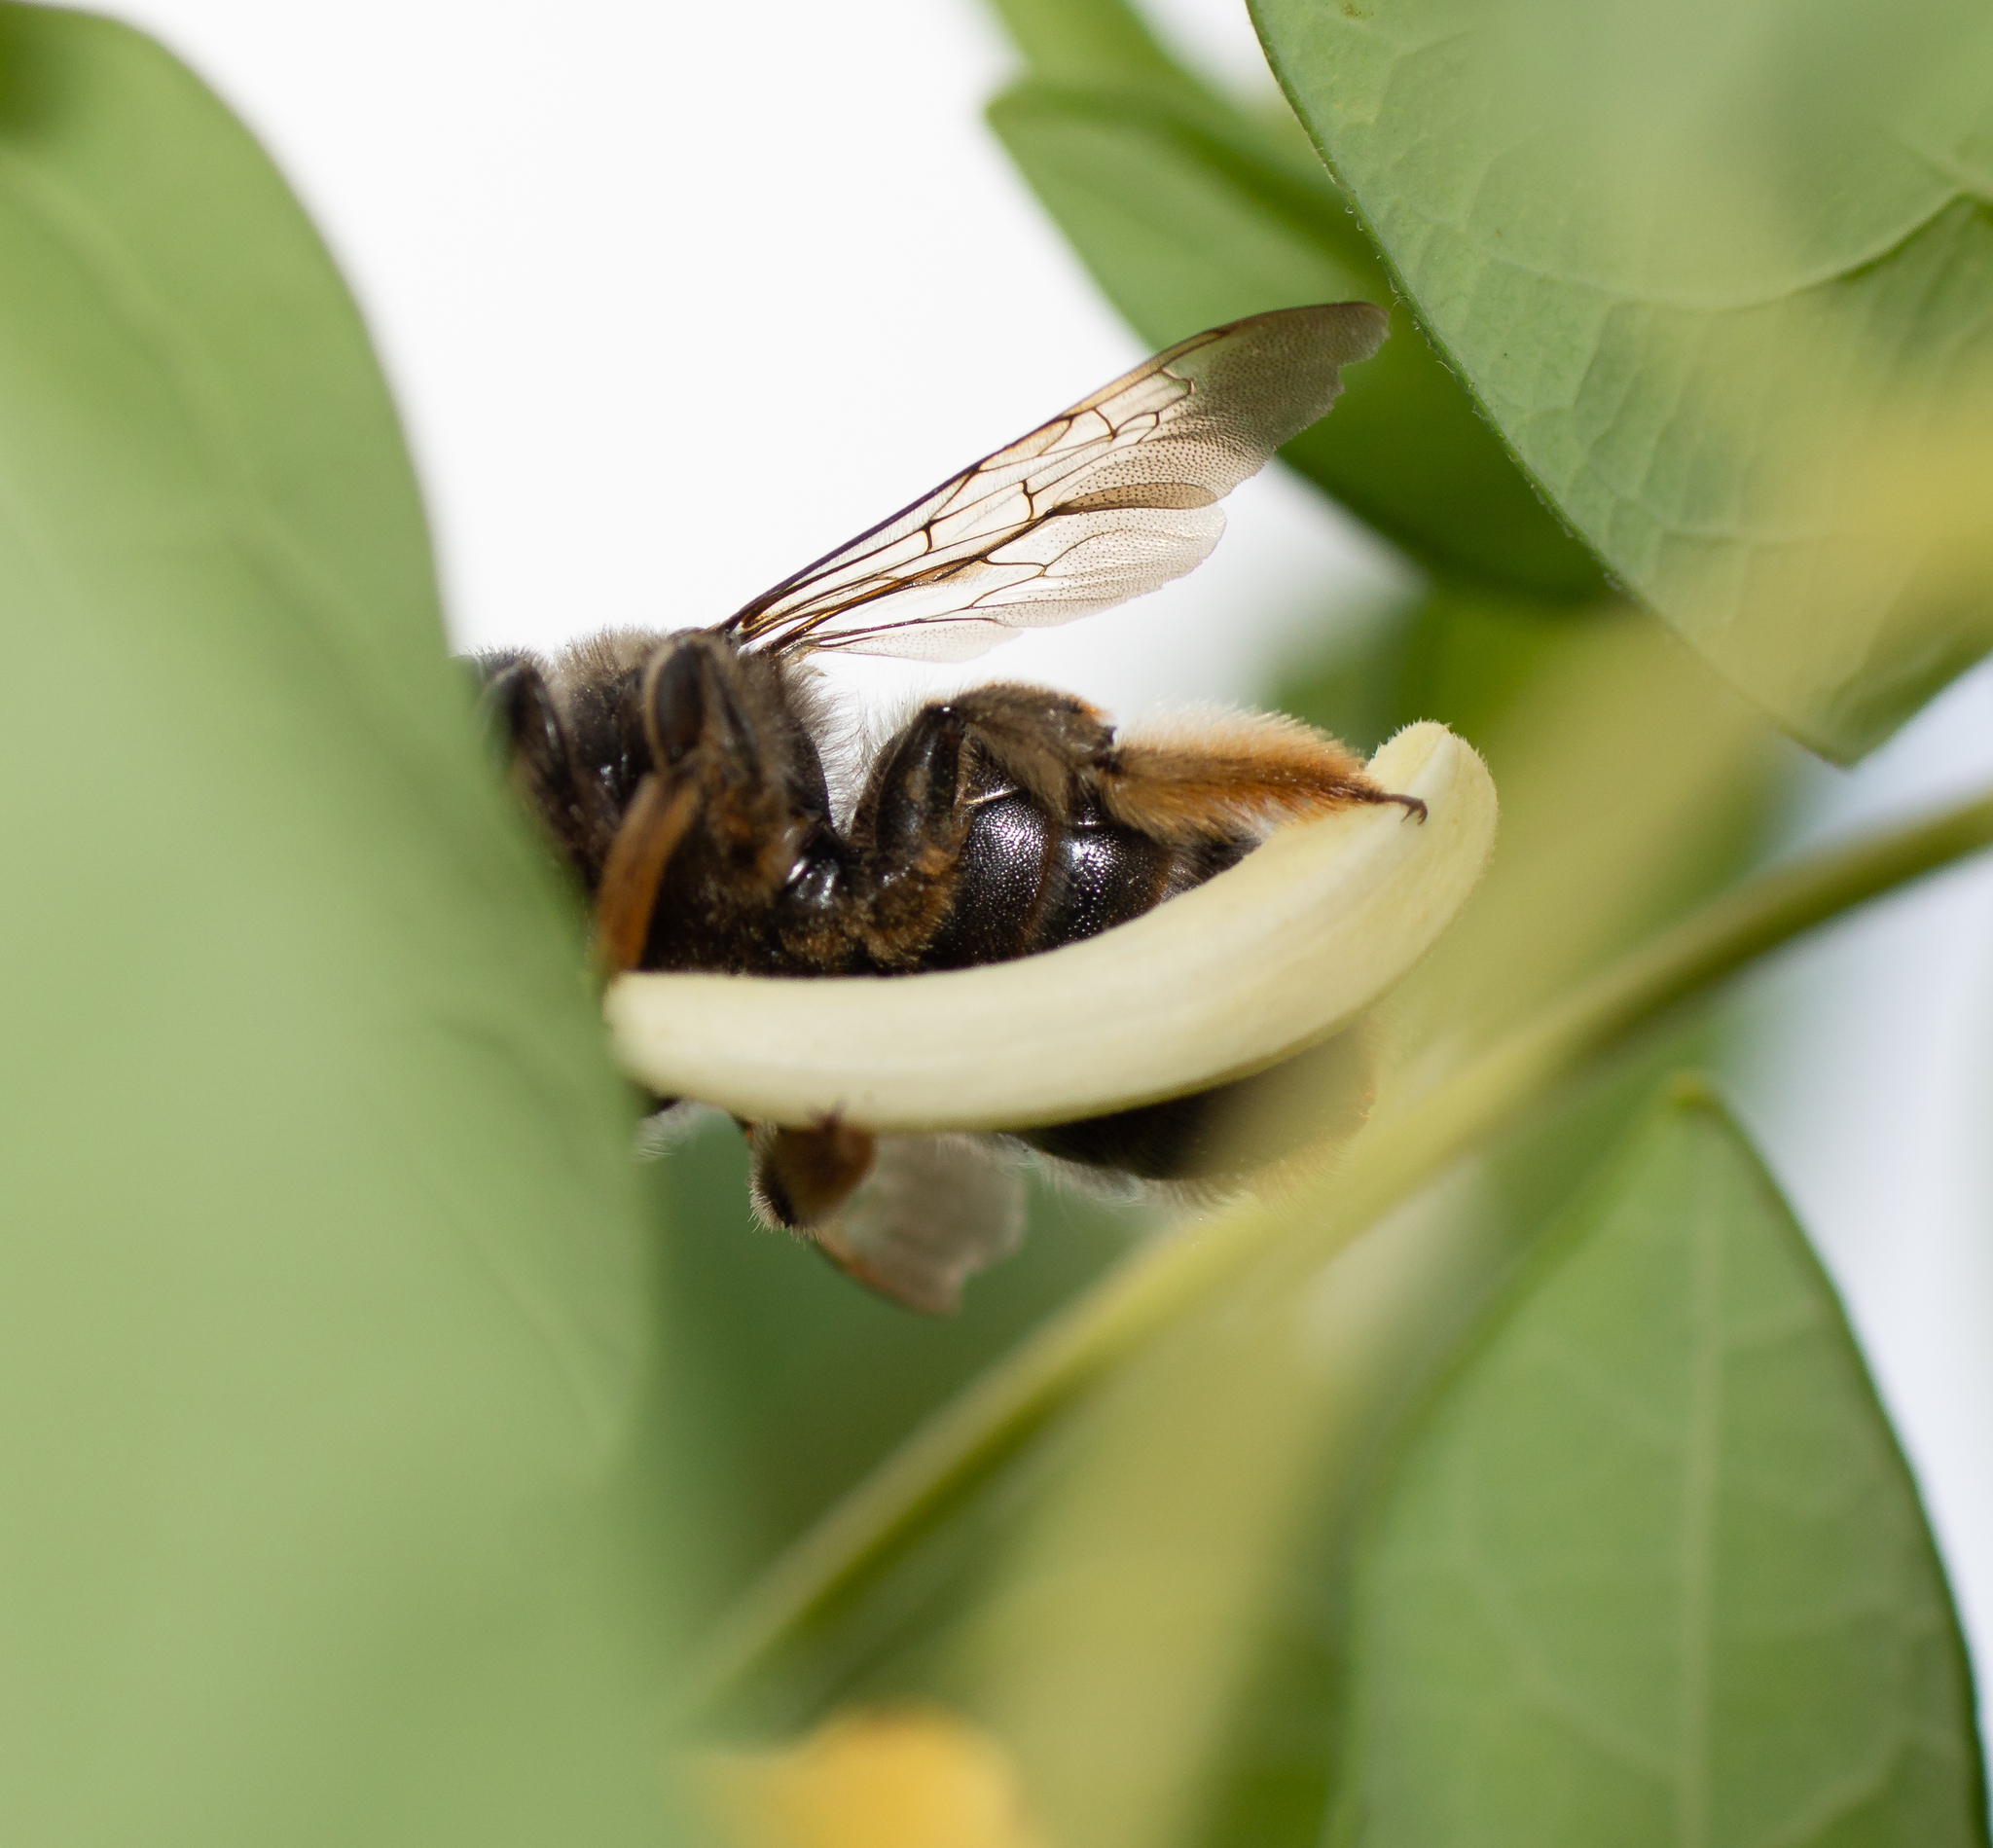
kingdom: Animalia
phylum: Arthropoda
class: Insecta
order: Hymenoptera
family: Apidae
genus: Xylocopa
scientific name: Xylocopa cantabrita
